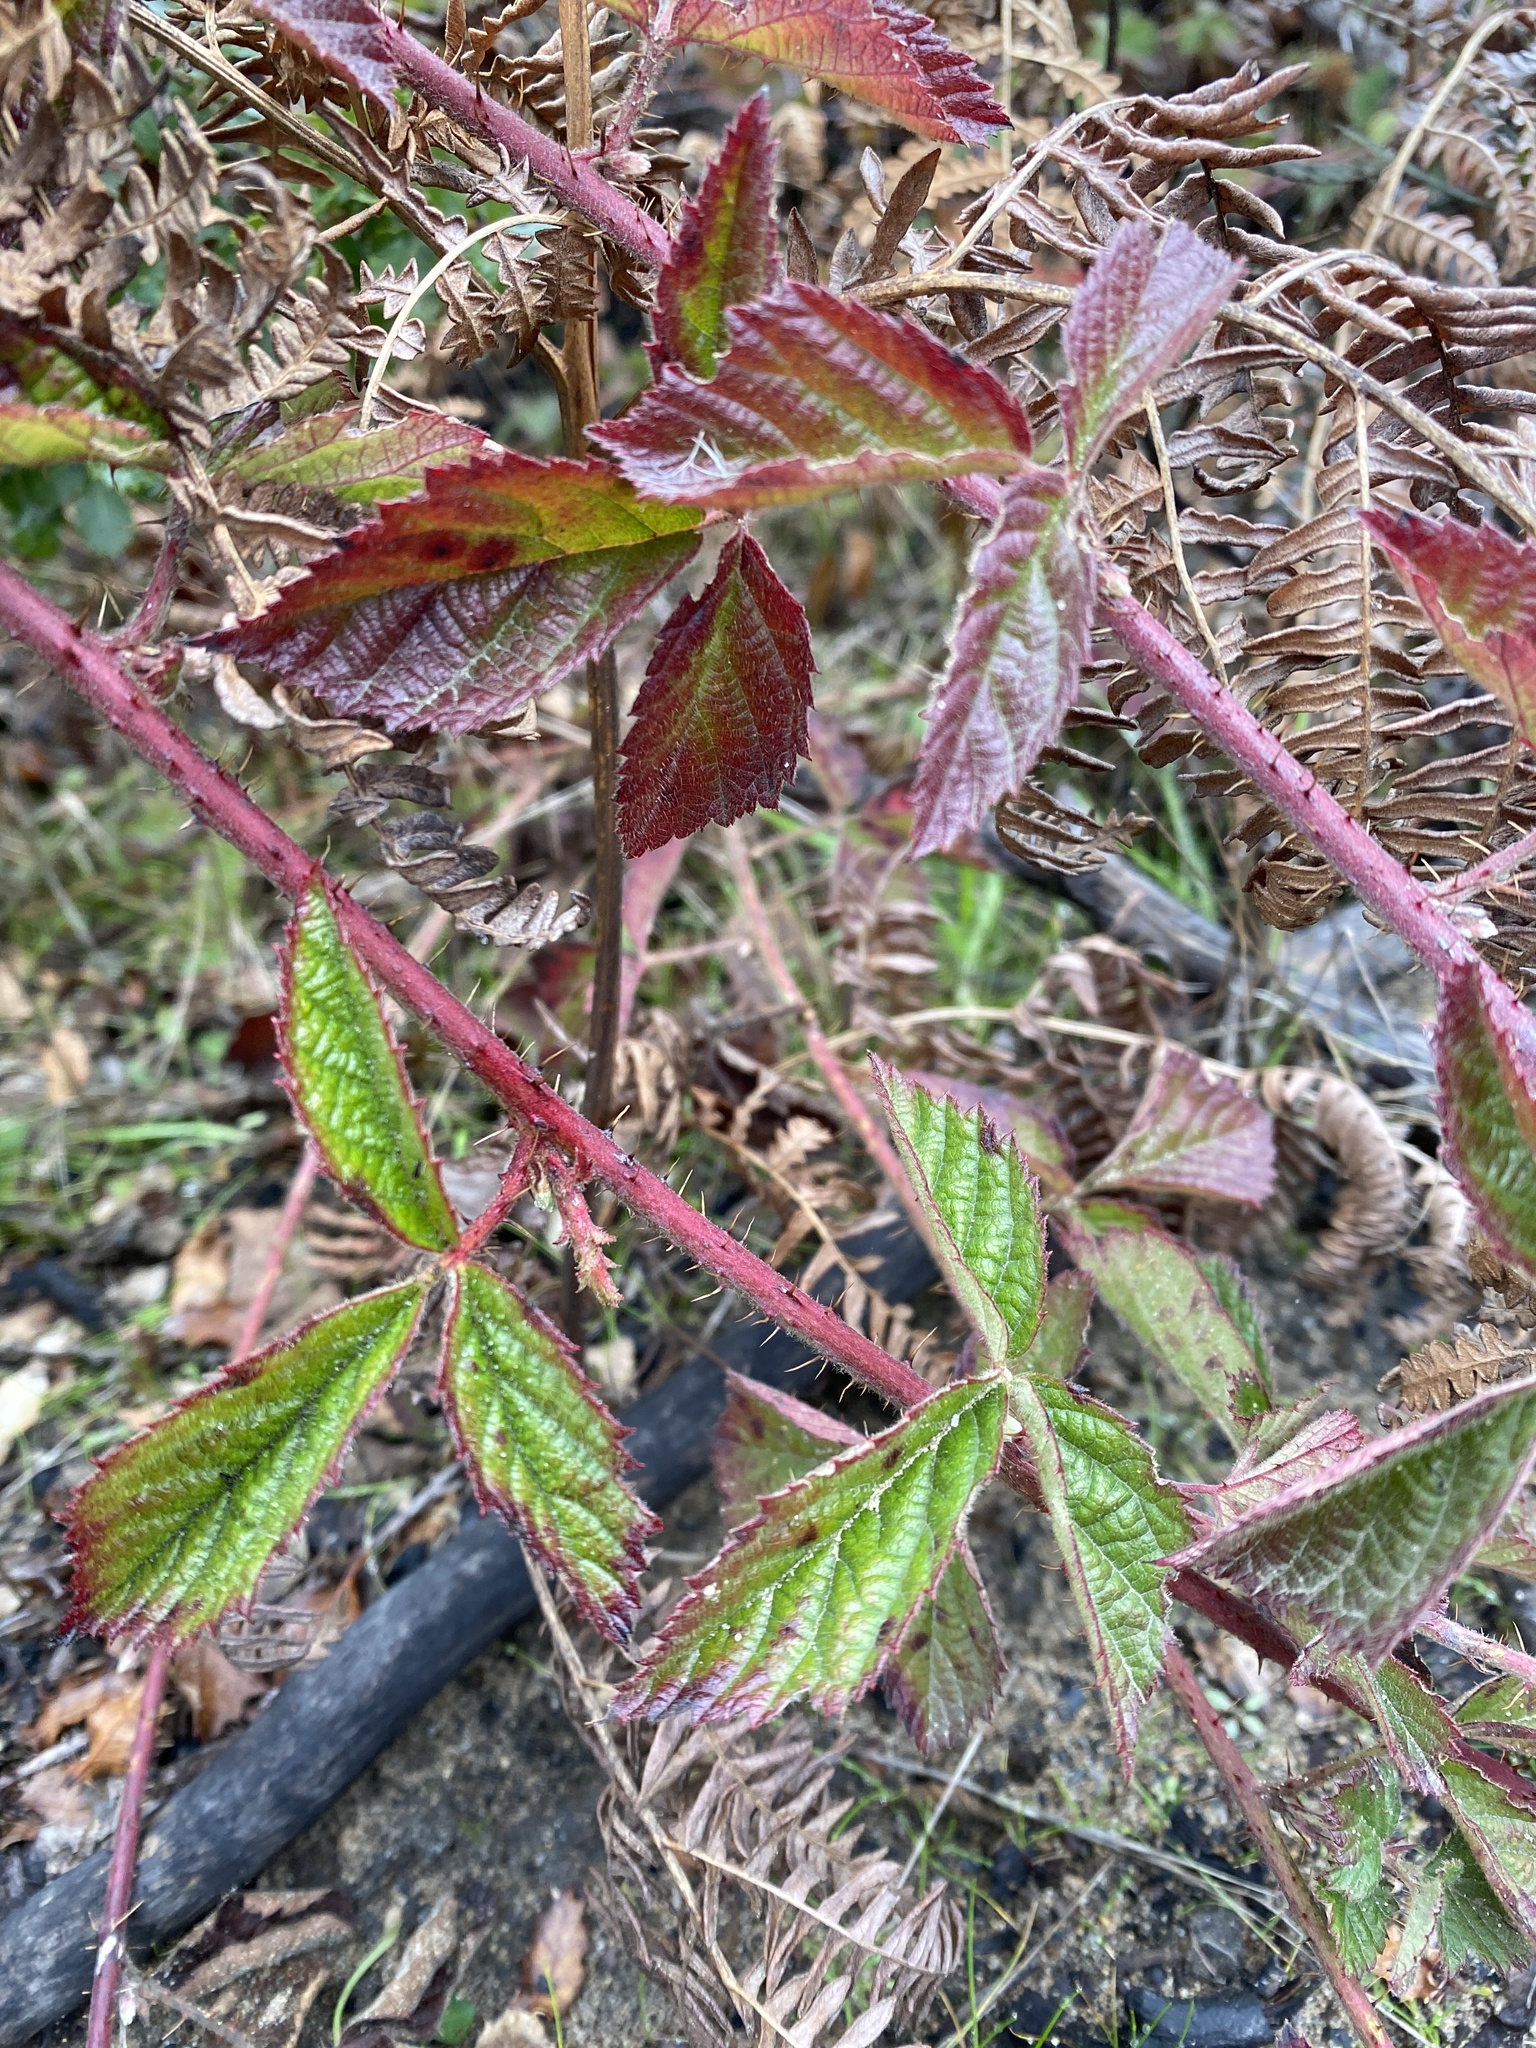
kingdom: Plantae
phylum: Tracheophyta
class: Magnoliopsida
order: Rosales
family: Rosaceae
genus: Rubus
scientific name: Rubus ursinus
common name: Pacific blackberry
